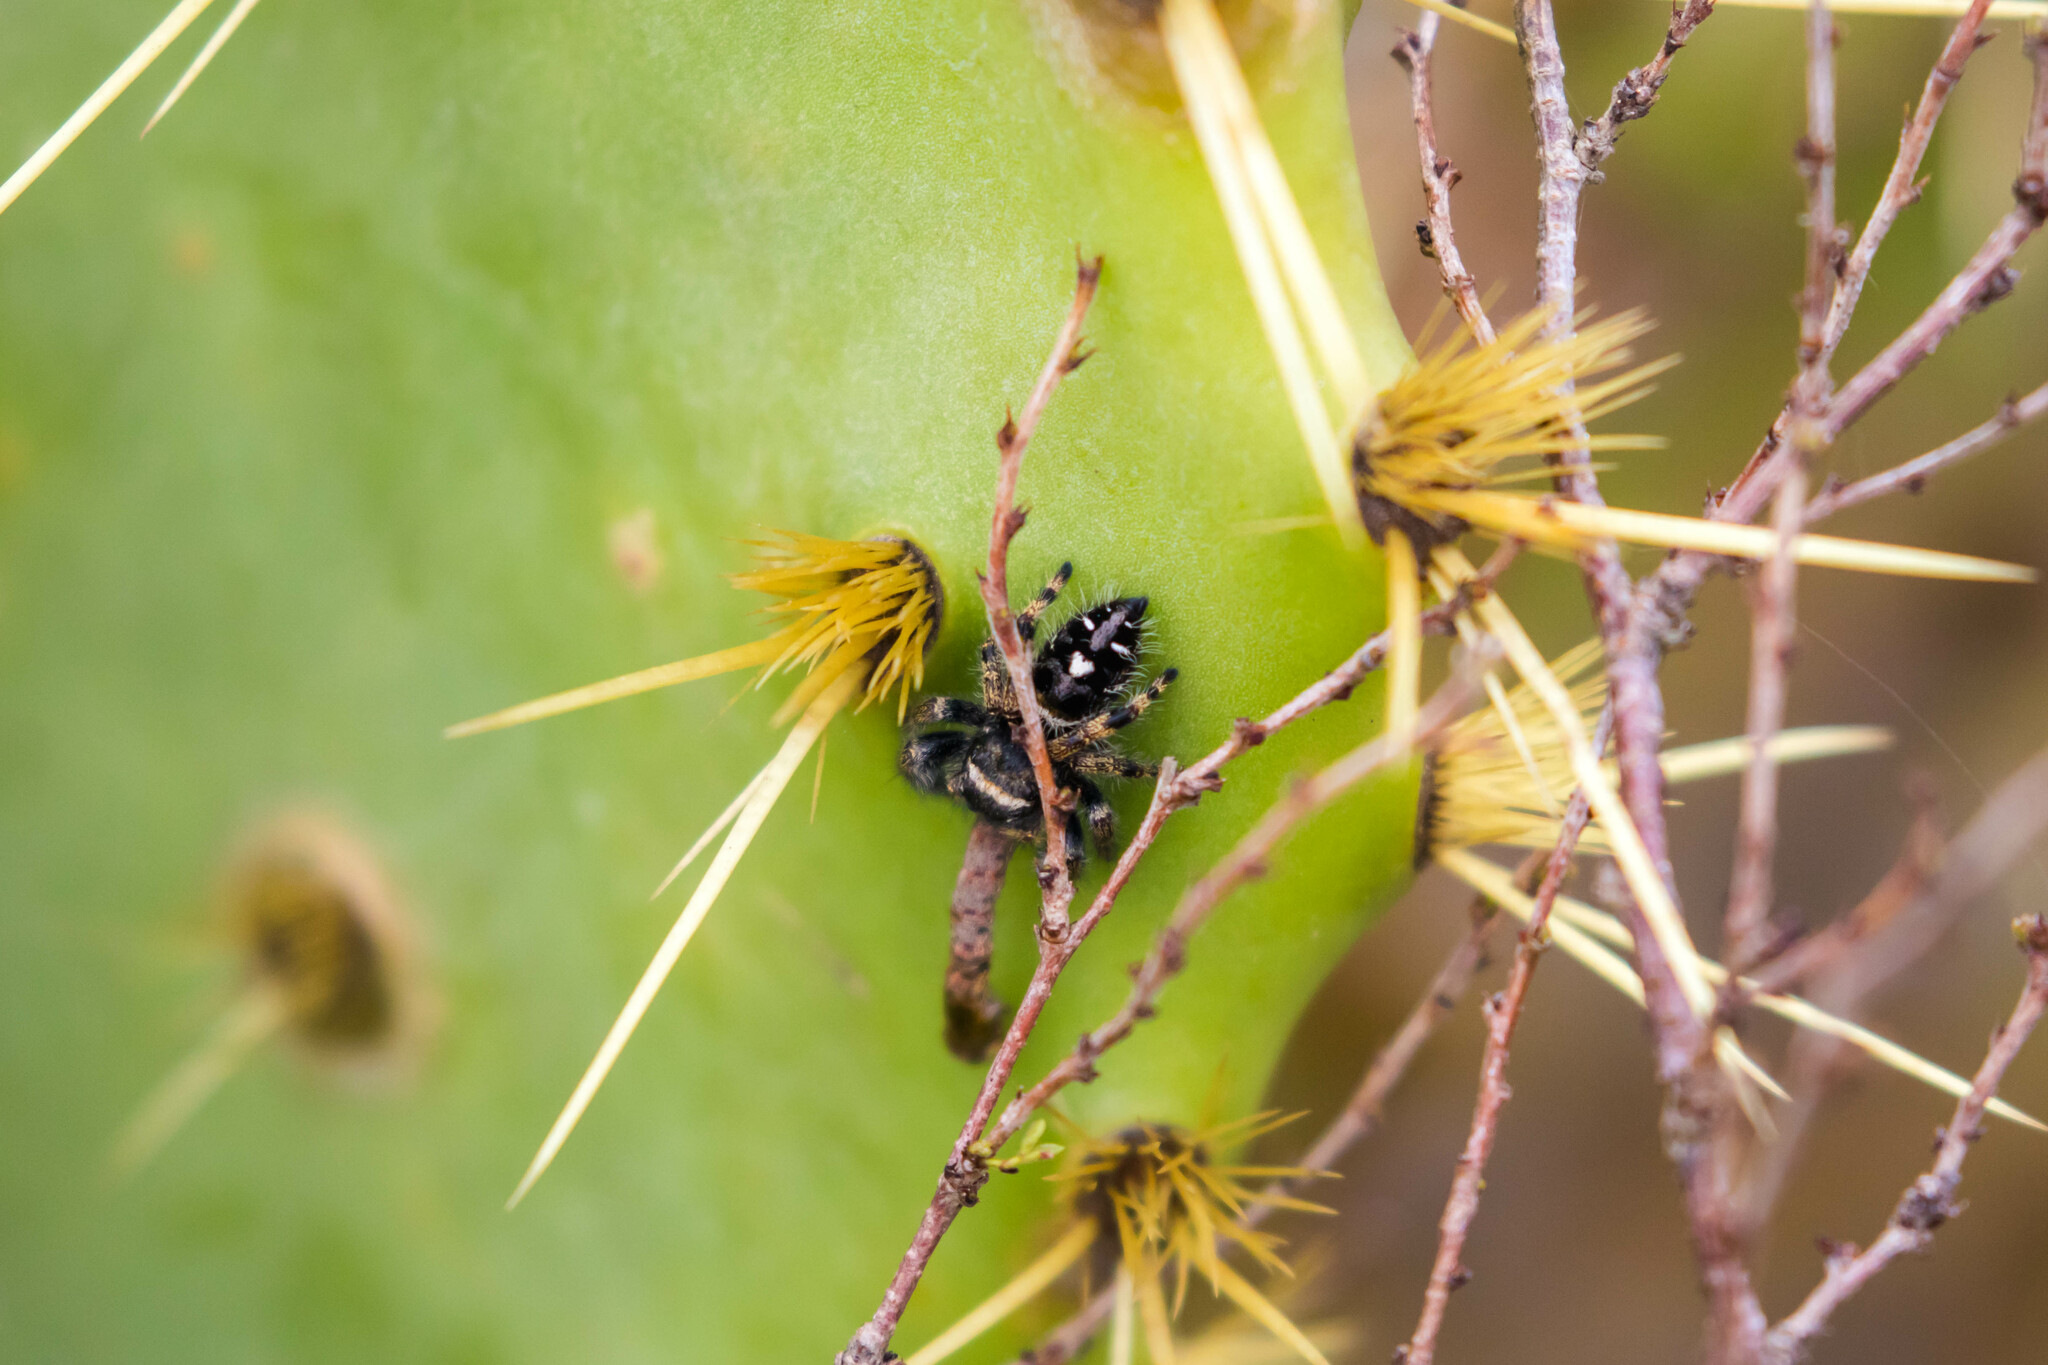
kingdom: Animalia
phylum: Arthropoda
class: Arachnida
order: Araneae
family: Salticidae
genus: Phidippus
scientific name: Phidippus audax
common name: Bold jumper
